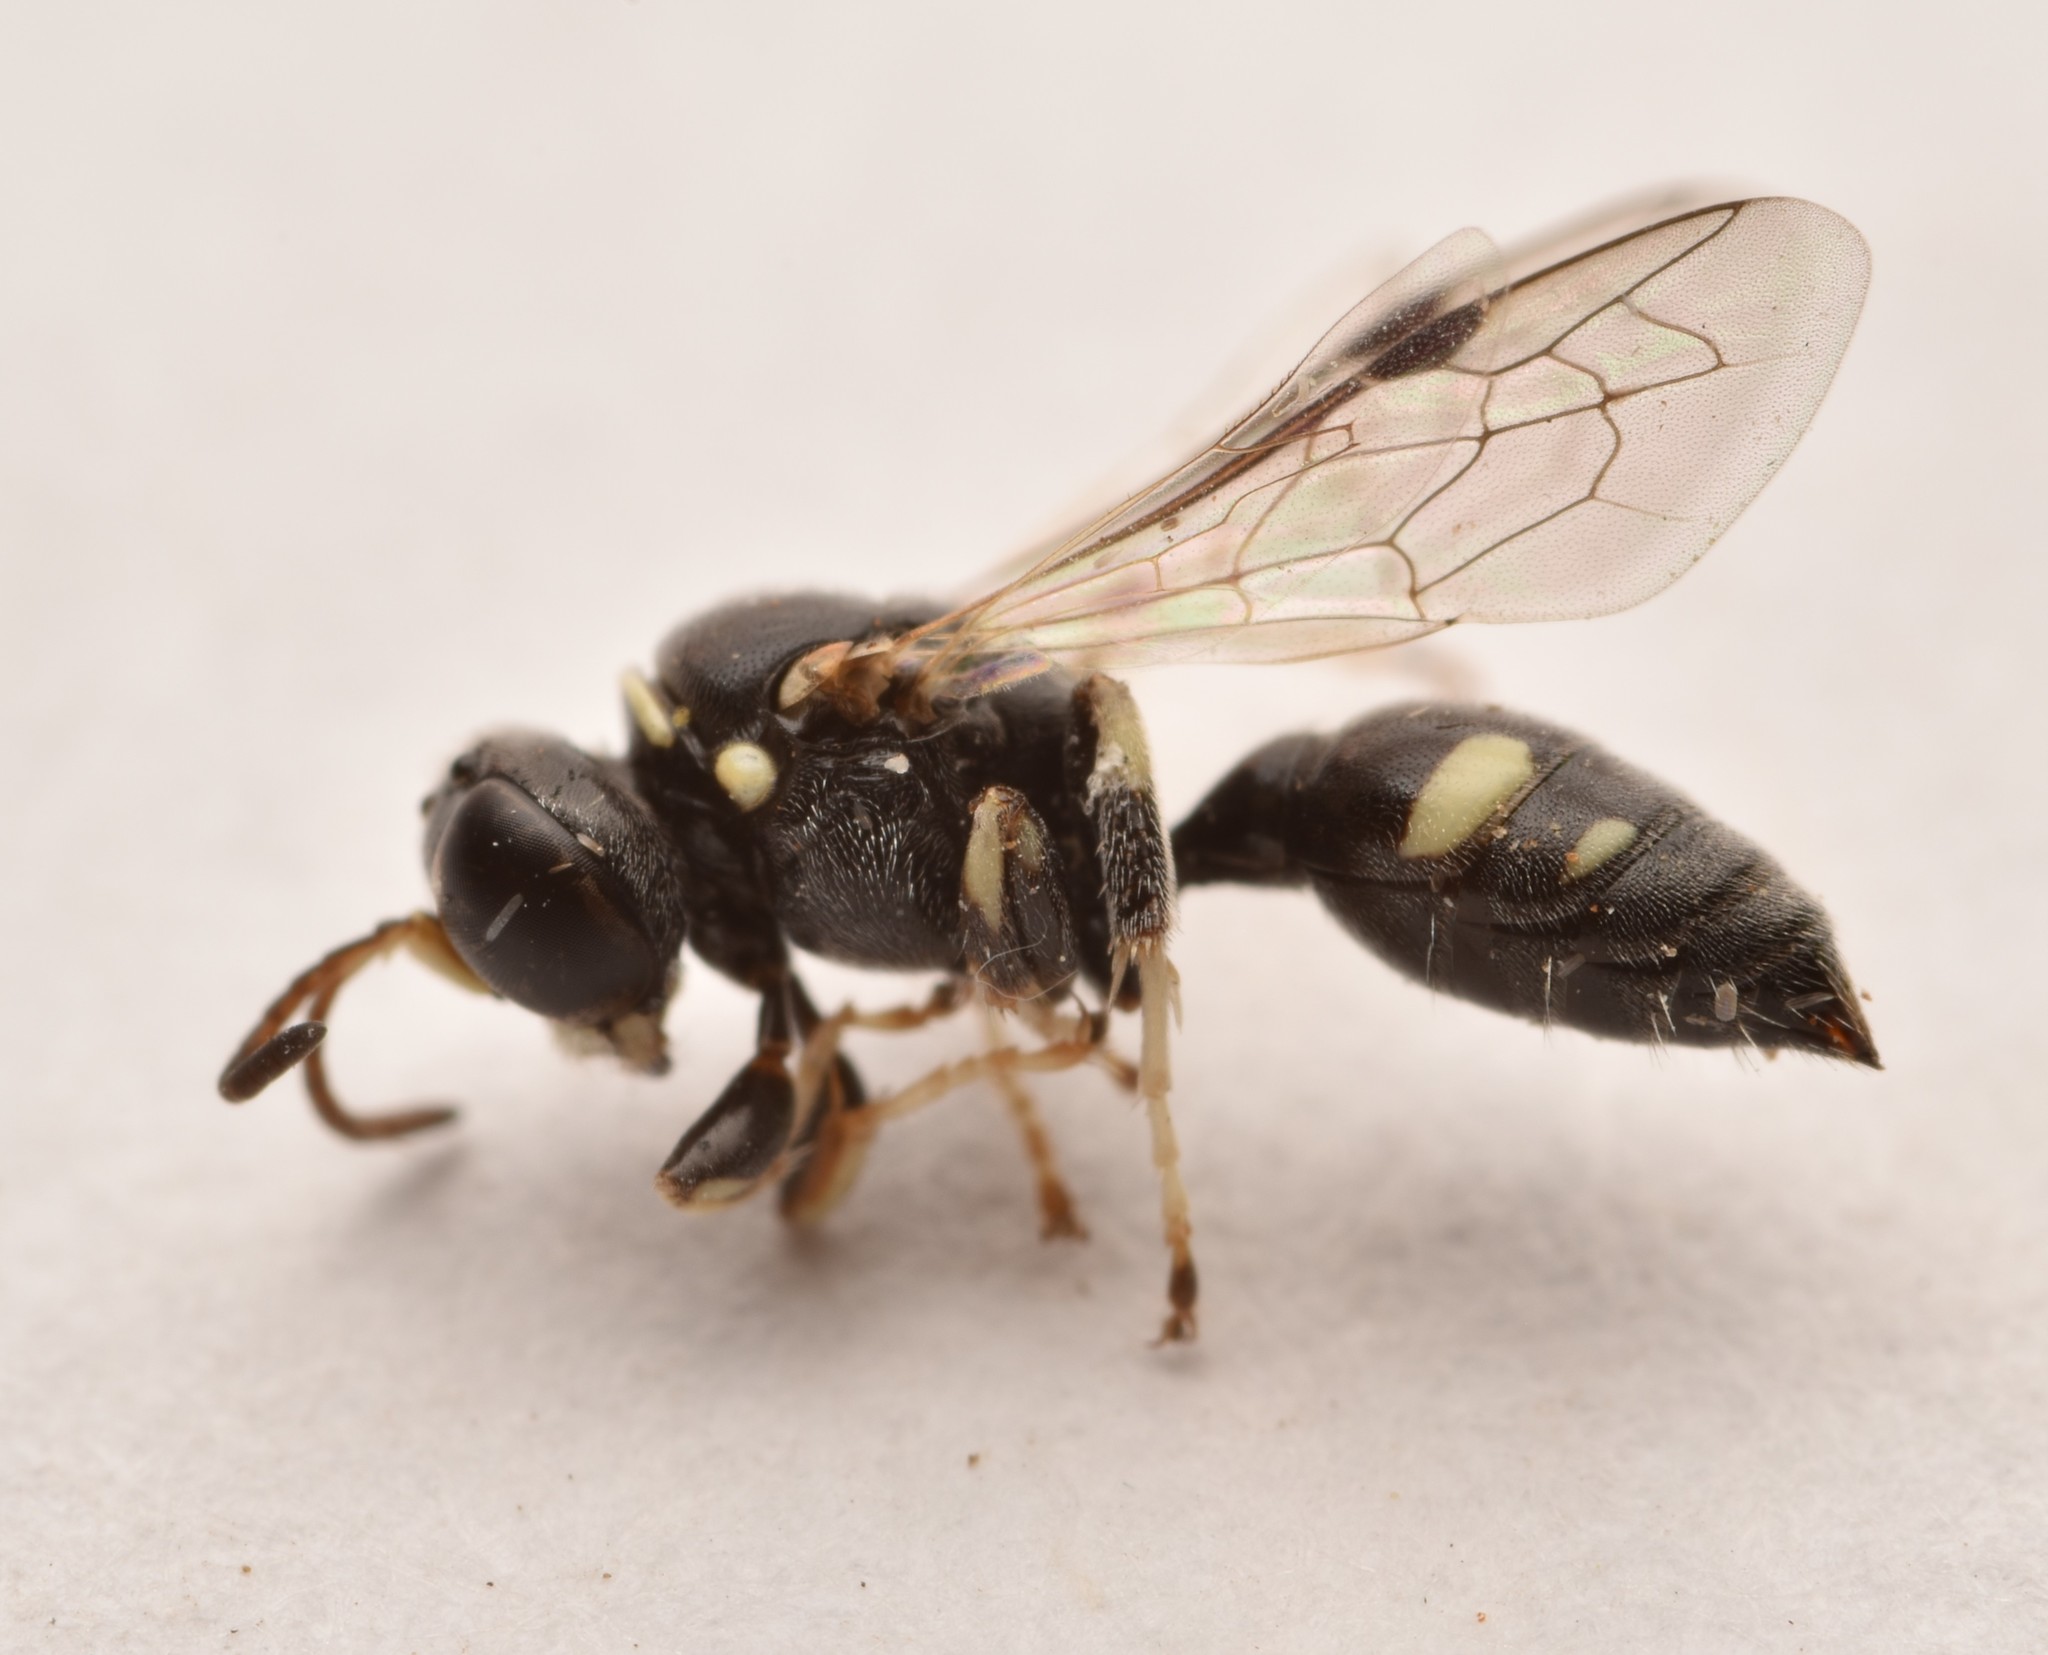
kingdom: Animalia
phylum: Arthropoda
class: Insecta
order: Hymenoptera
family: Crabronidae
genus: Clitemnestra
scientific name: Clitemnestra bipunctata
